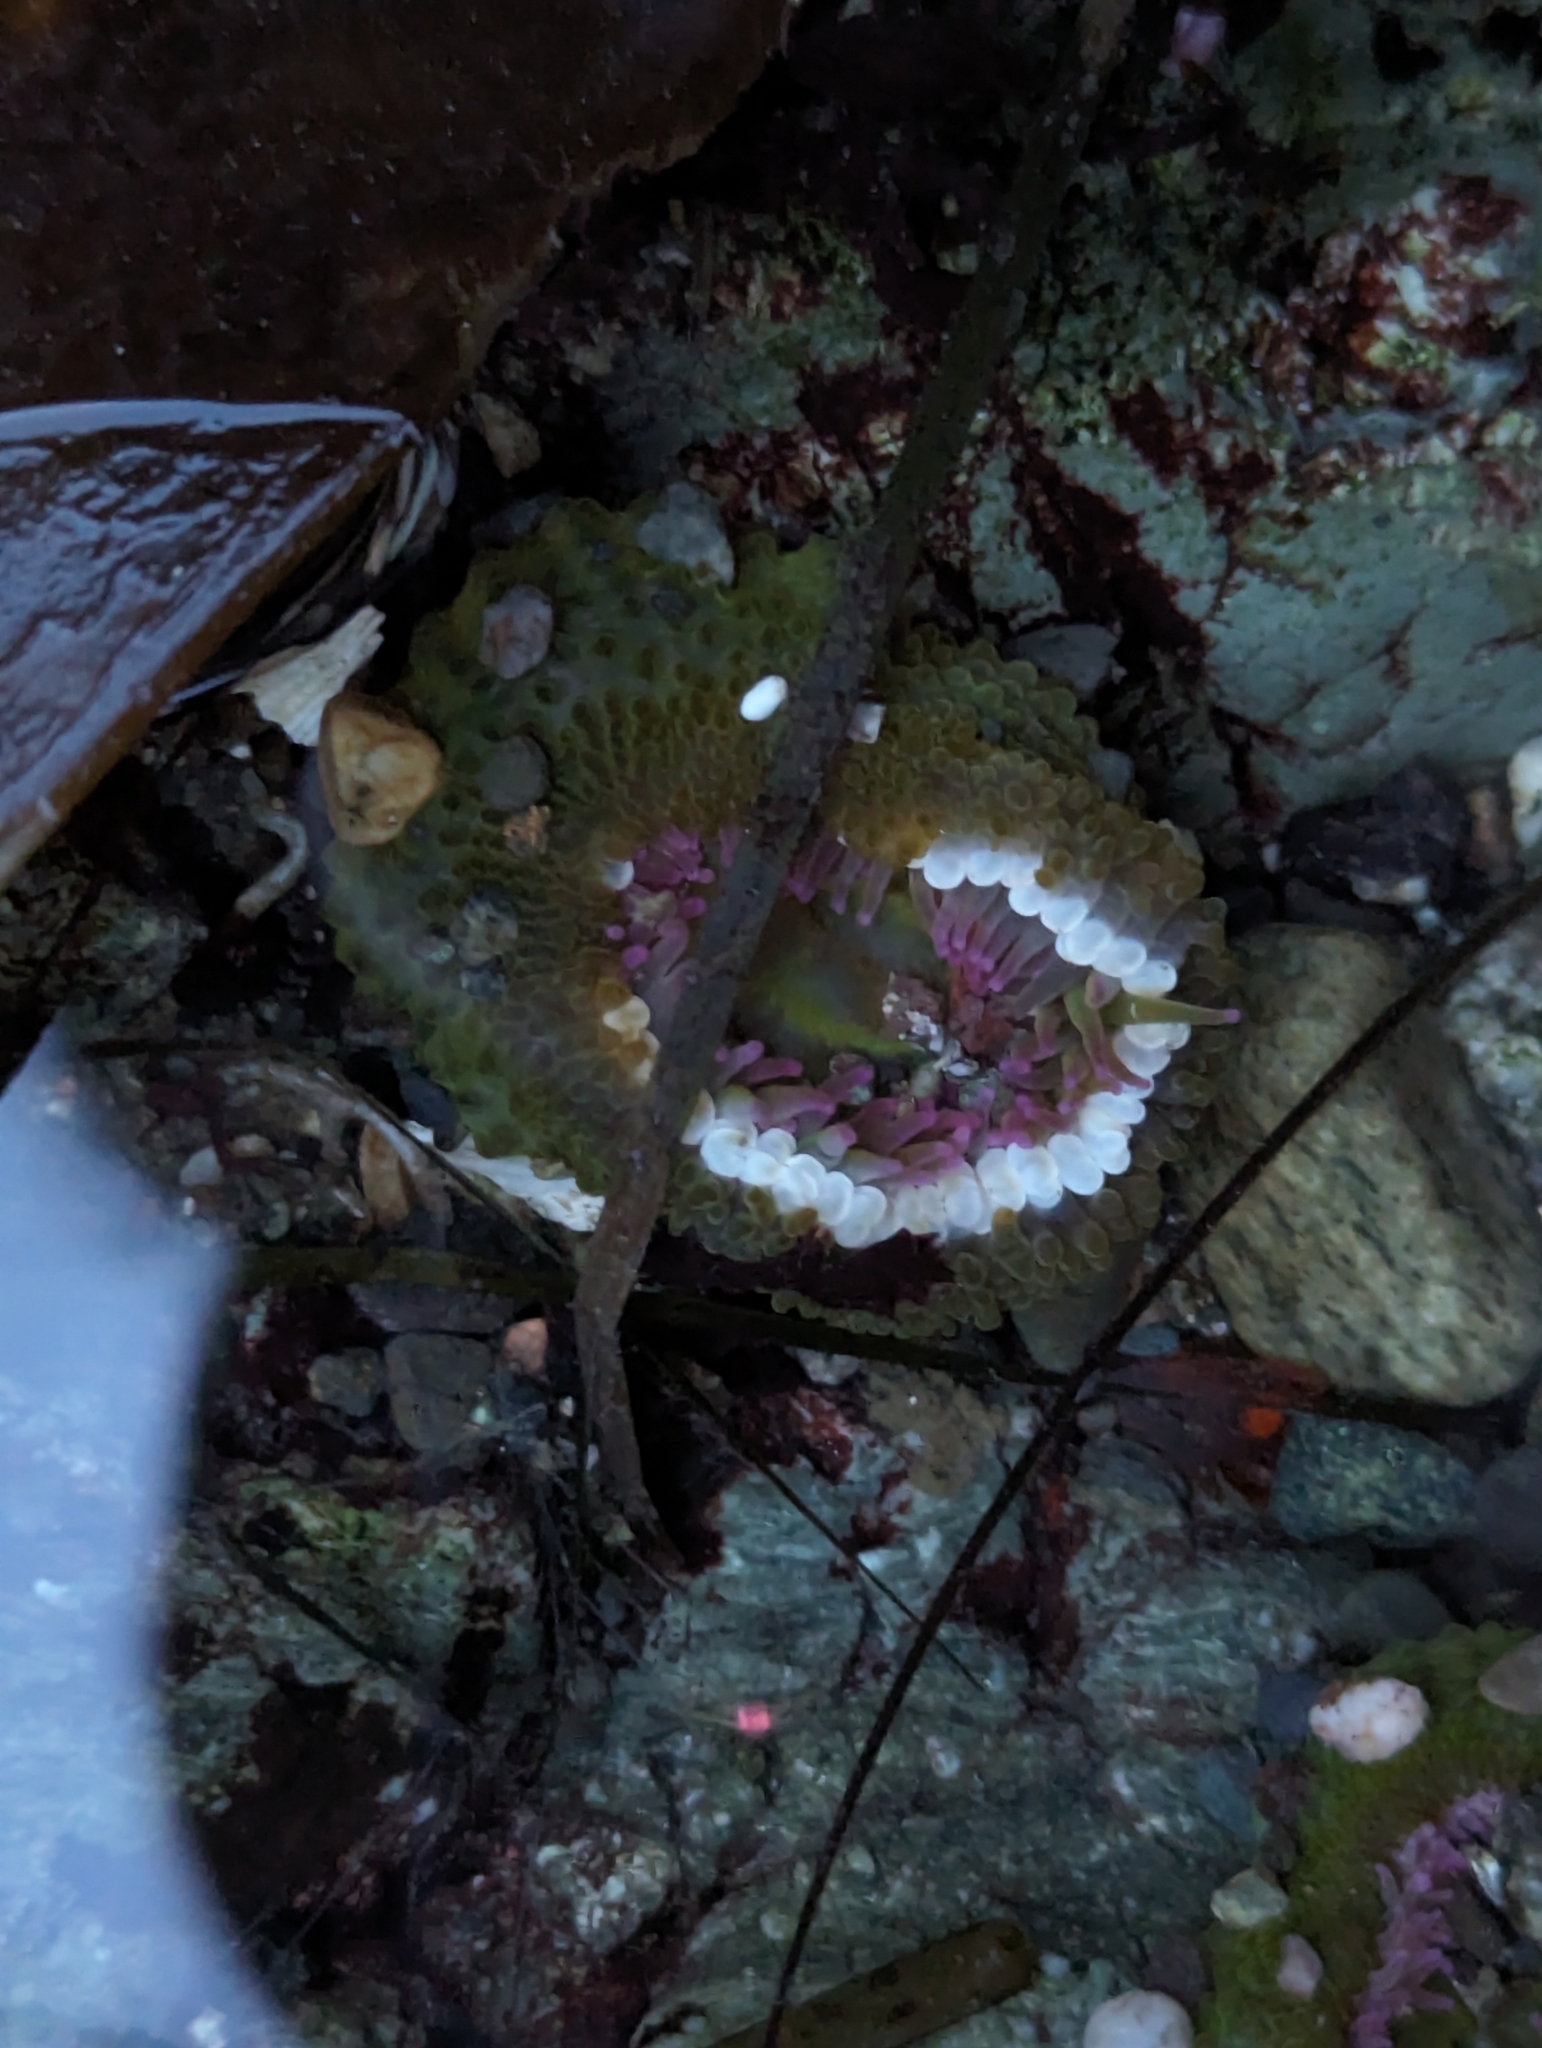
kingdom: Animalia
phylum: Cnidaria
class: Anthozoa
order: Actiniaria
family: Actiniidae
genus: Anthopleura
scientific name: Anthopleura elegantissima
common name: Clonal anemone
